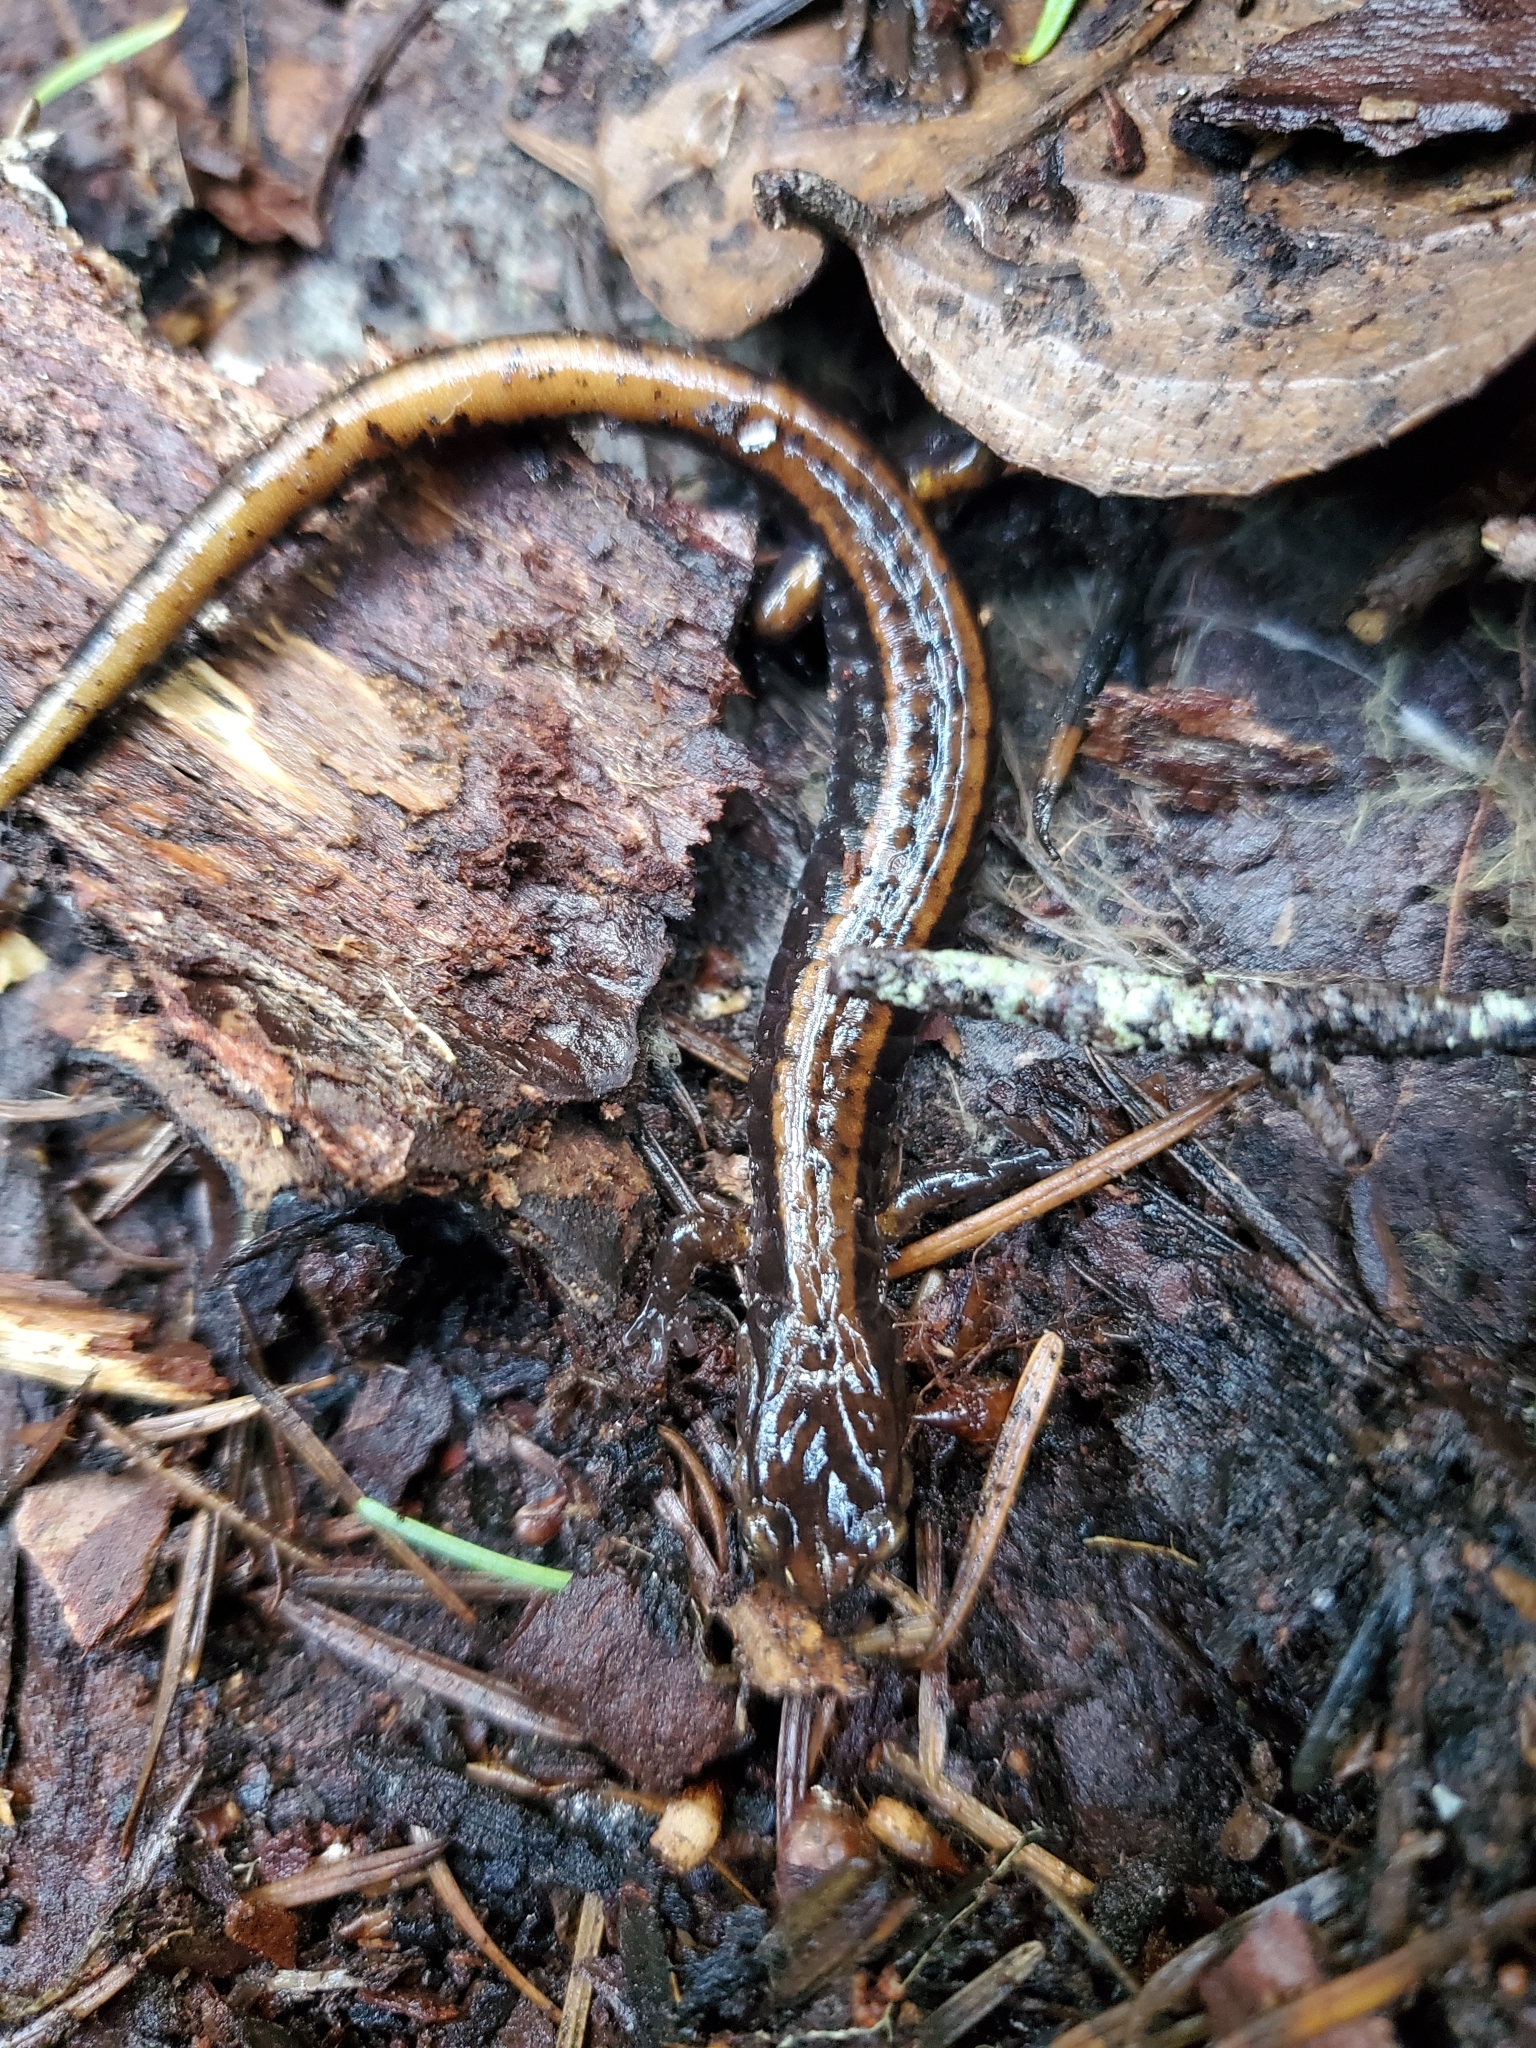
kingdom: Animalia
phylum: Chordata
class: Amphibia
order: Caudata
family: Plethodontidae
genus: Plethodon
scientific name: Plethodon vehiculum
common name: Western red-backed salamander
